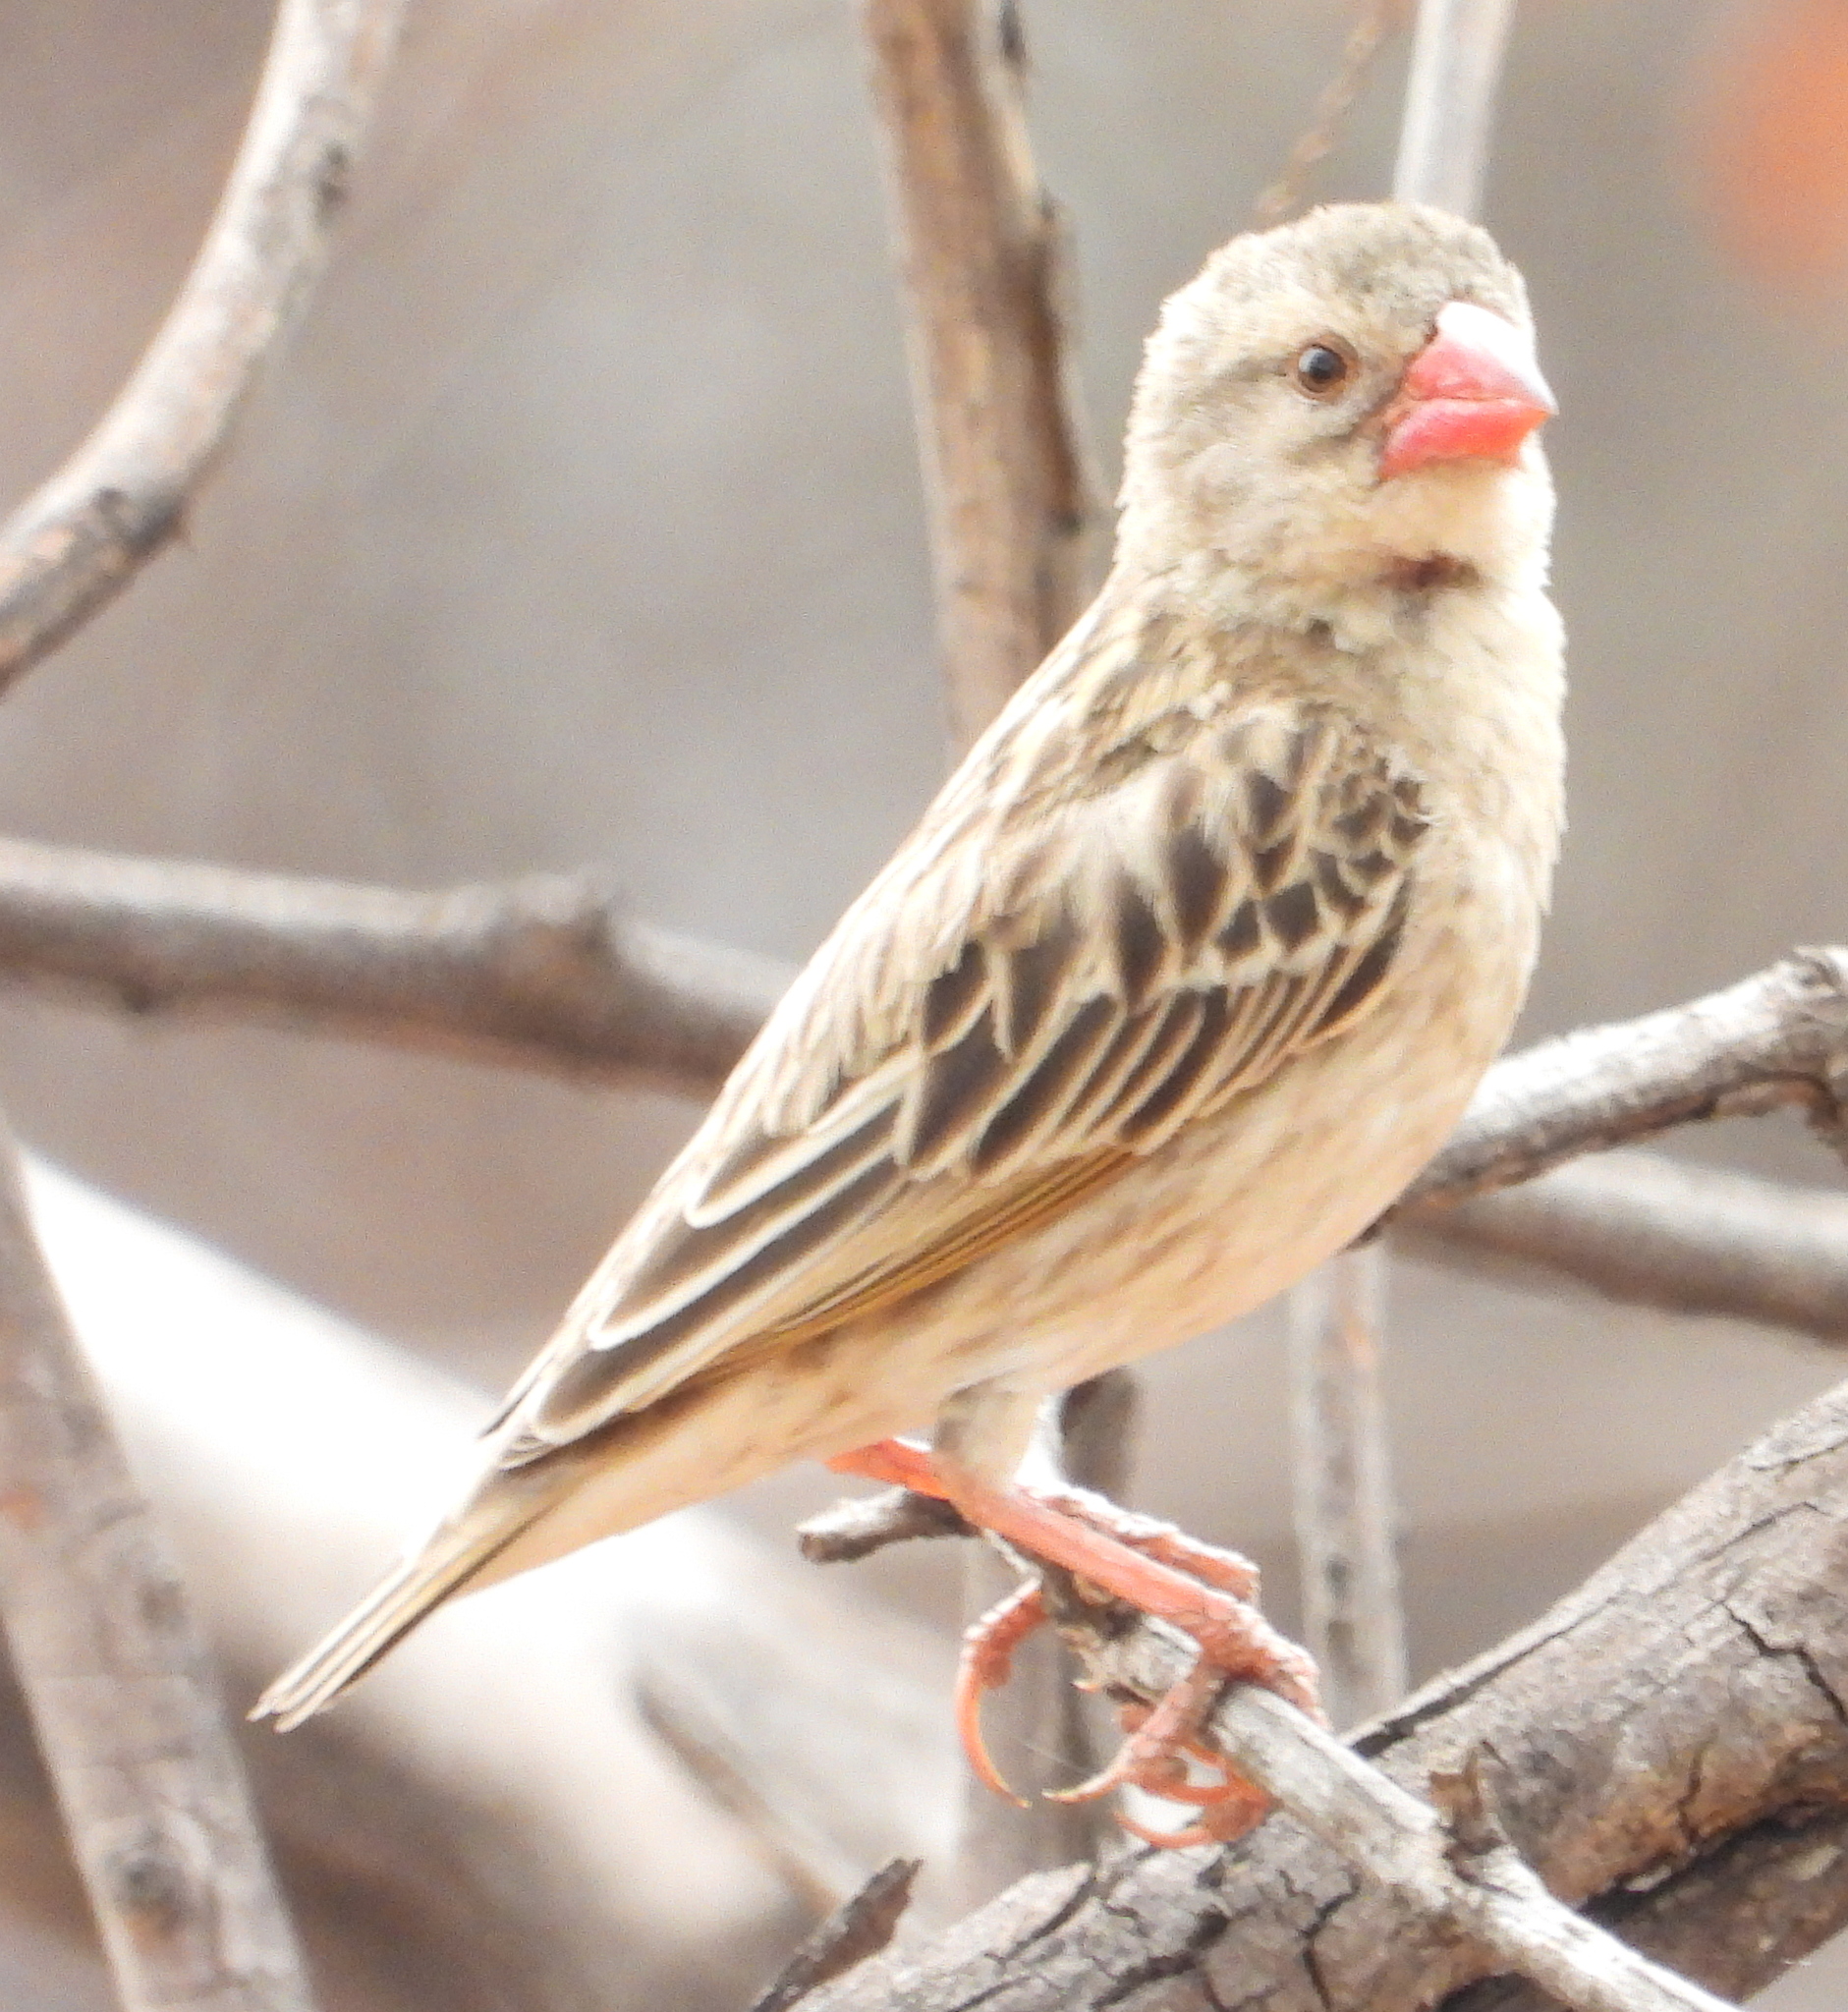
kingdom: Animalia
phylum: Chordata
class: Aves
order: Passeriformes
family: Ploceidae
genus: Quelea
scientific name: Quelea quelea
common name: Red-billed quelea
